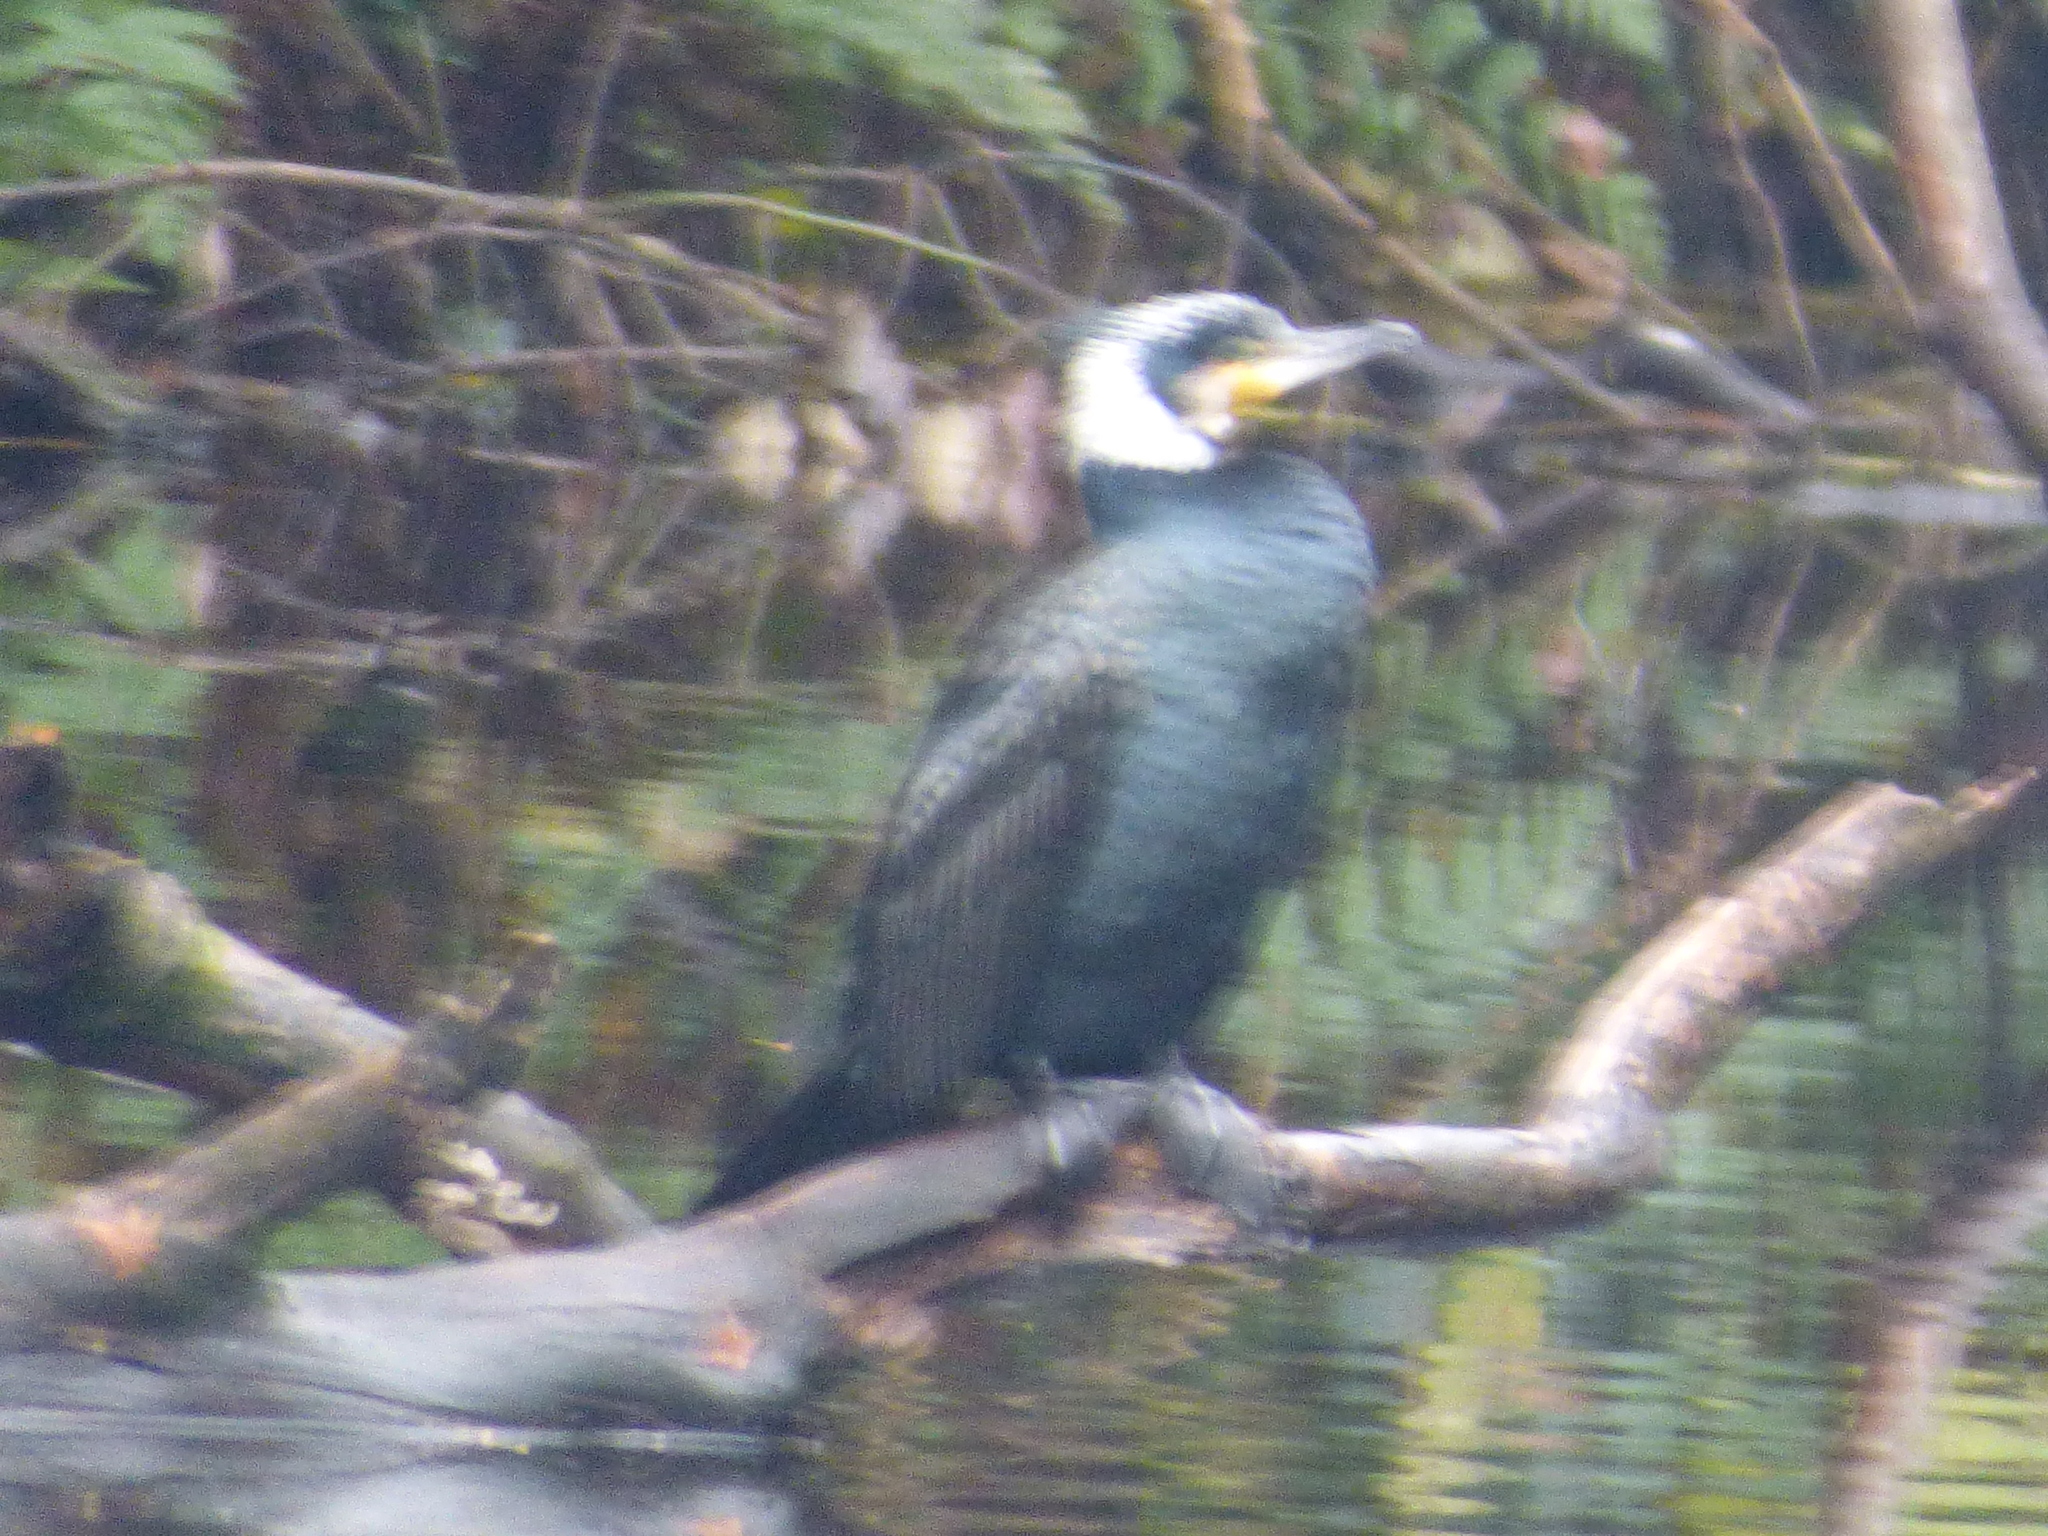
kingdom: Animalia
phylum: Chordata
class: Aves
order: Suliformes
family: Phalacrocoracidae
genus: Phalacrocorax
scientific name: Phalacrocorax carbo
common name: Great cormorant
